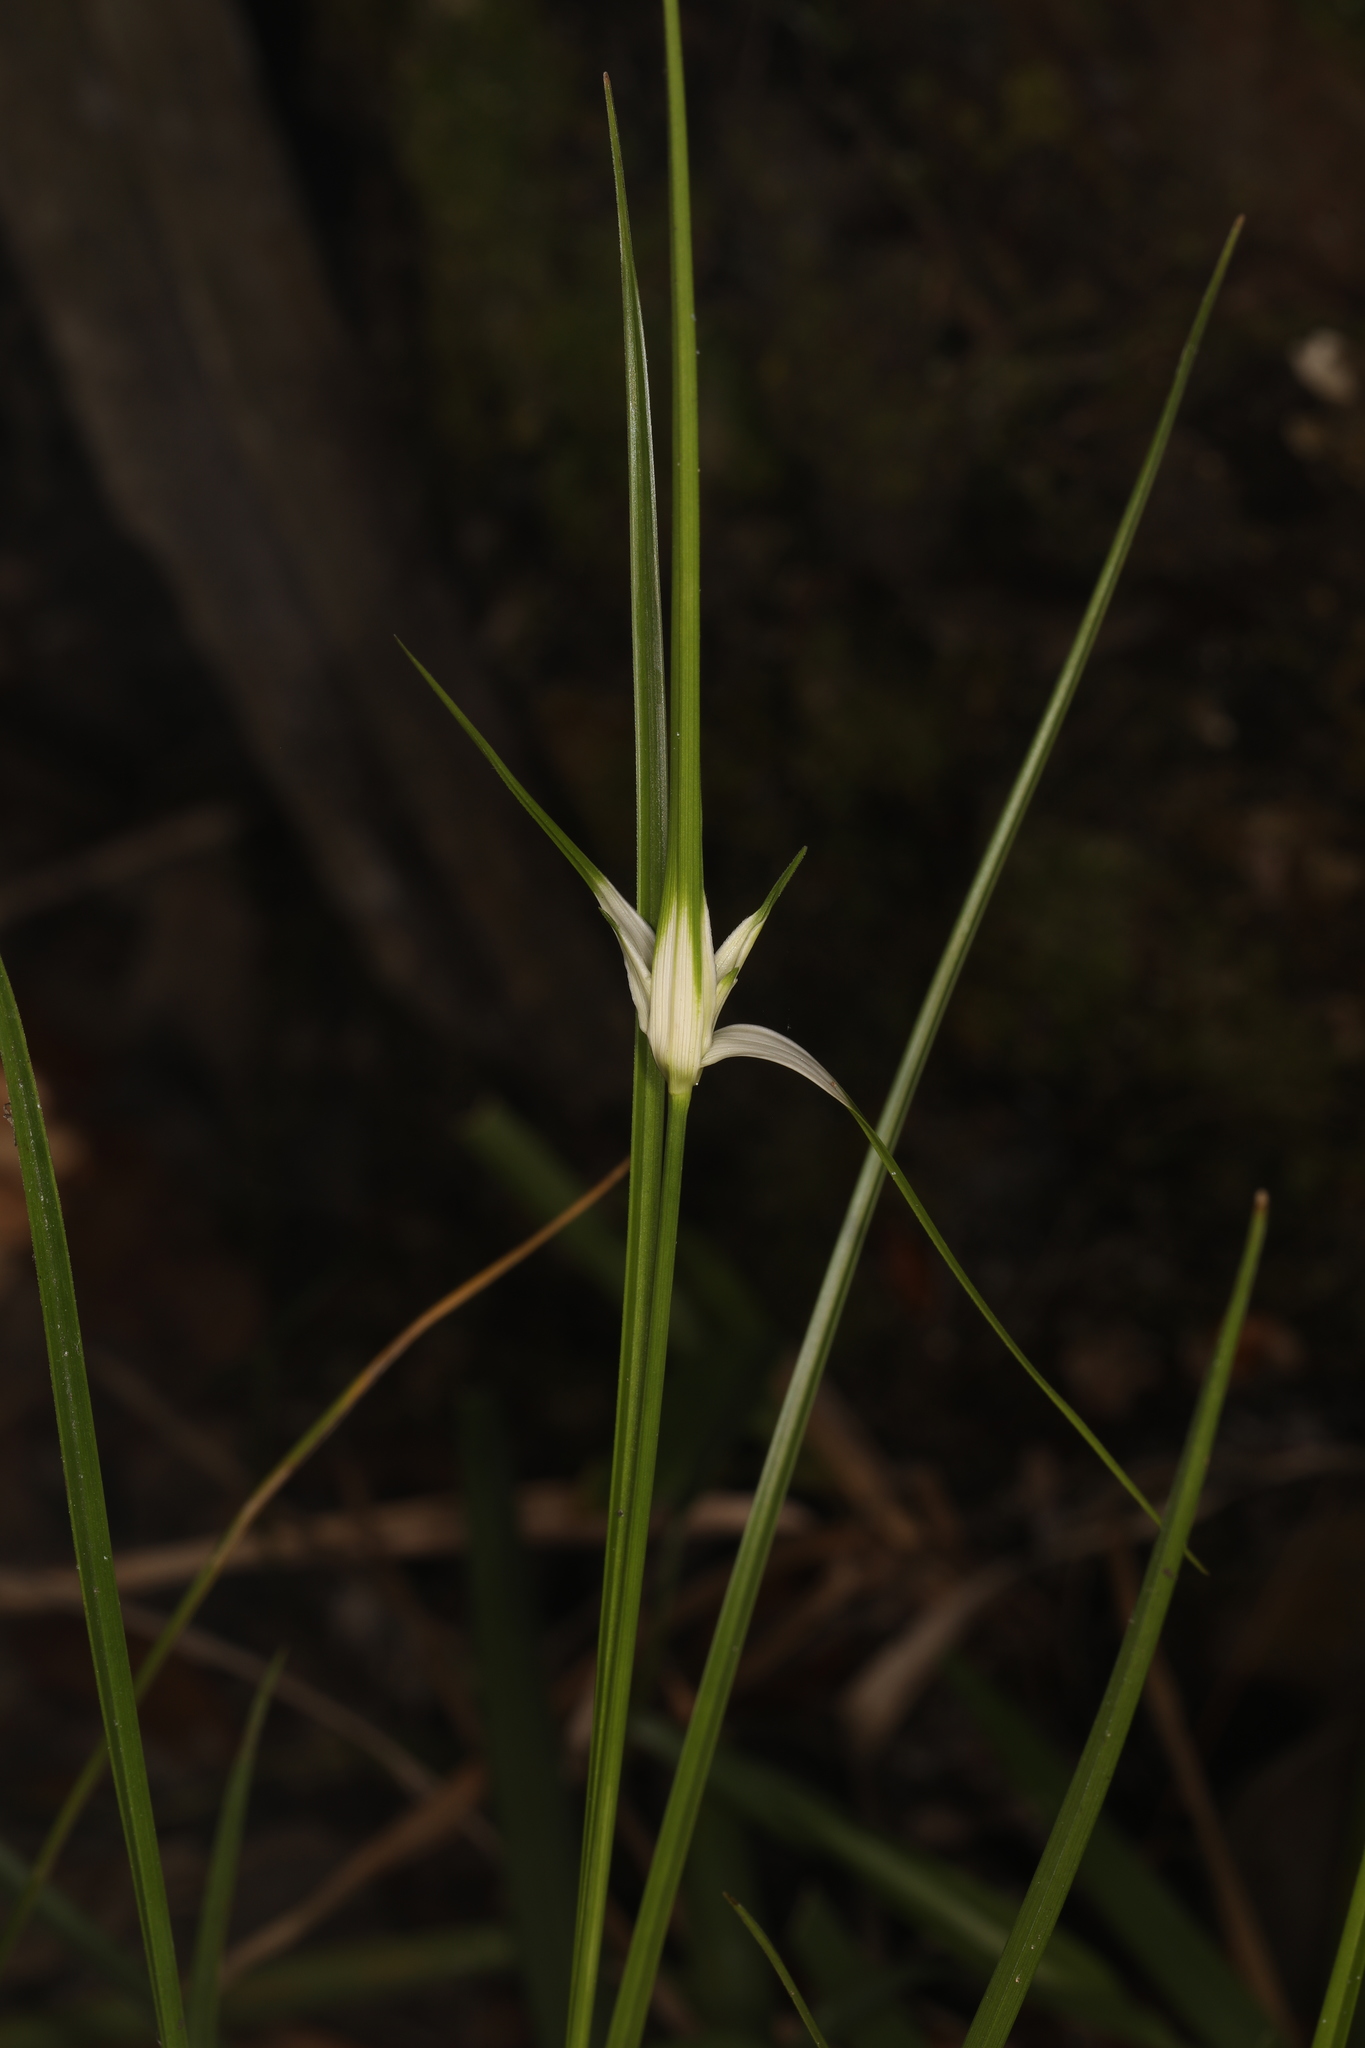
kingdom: Plantae
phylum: Tracheophyta
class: Liliopsida
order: Poales
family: Cyperaceae
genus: Rhynchospora
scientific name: Rhynchospora colorata
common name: Star sedge
